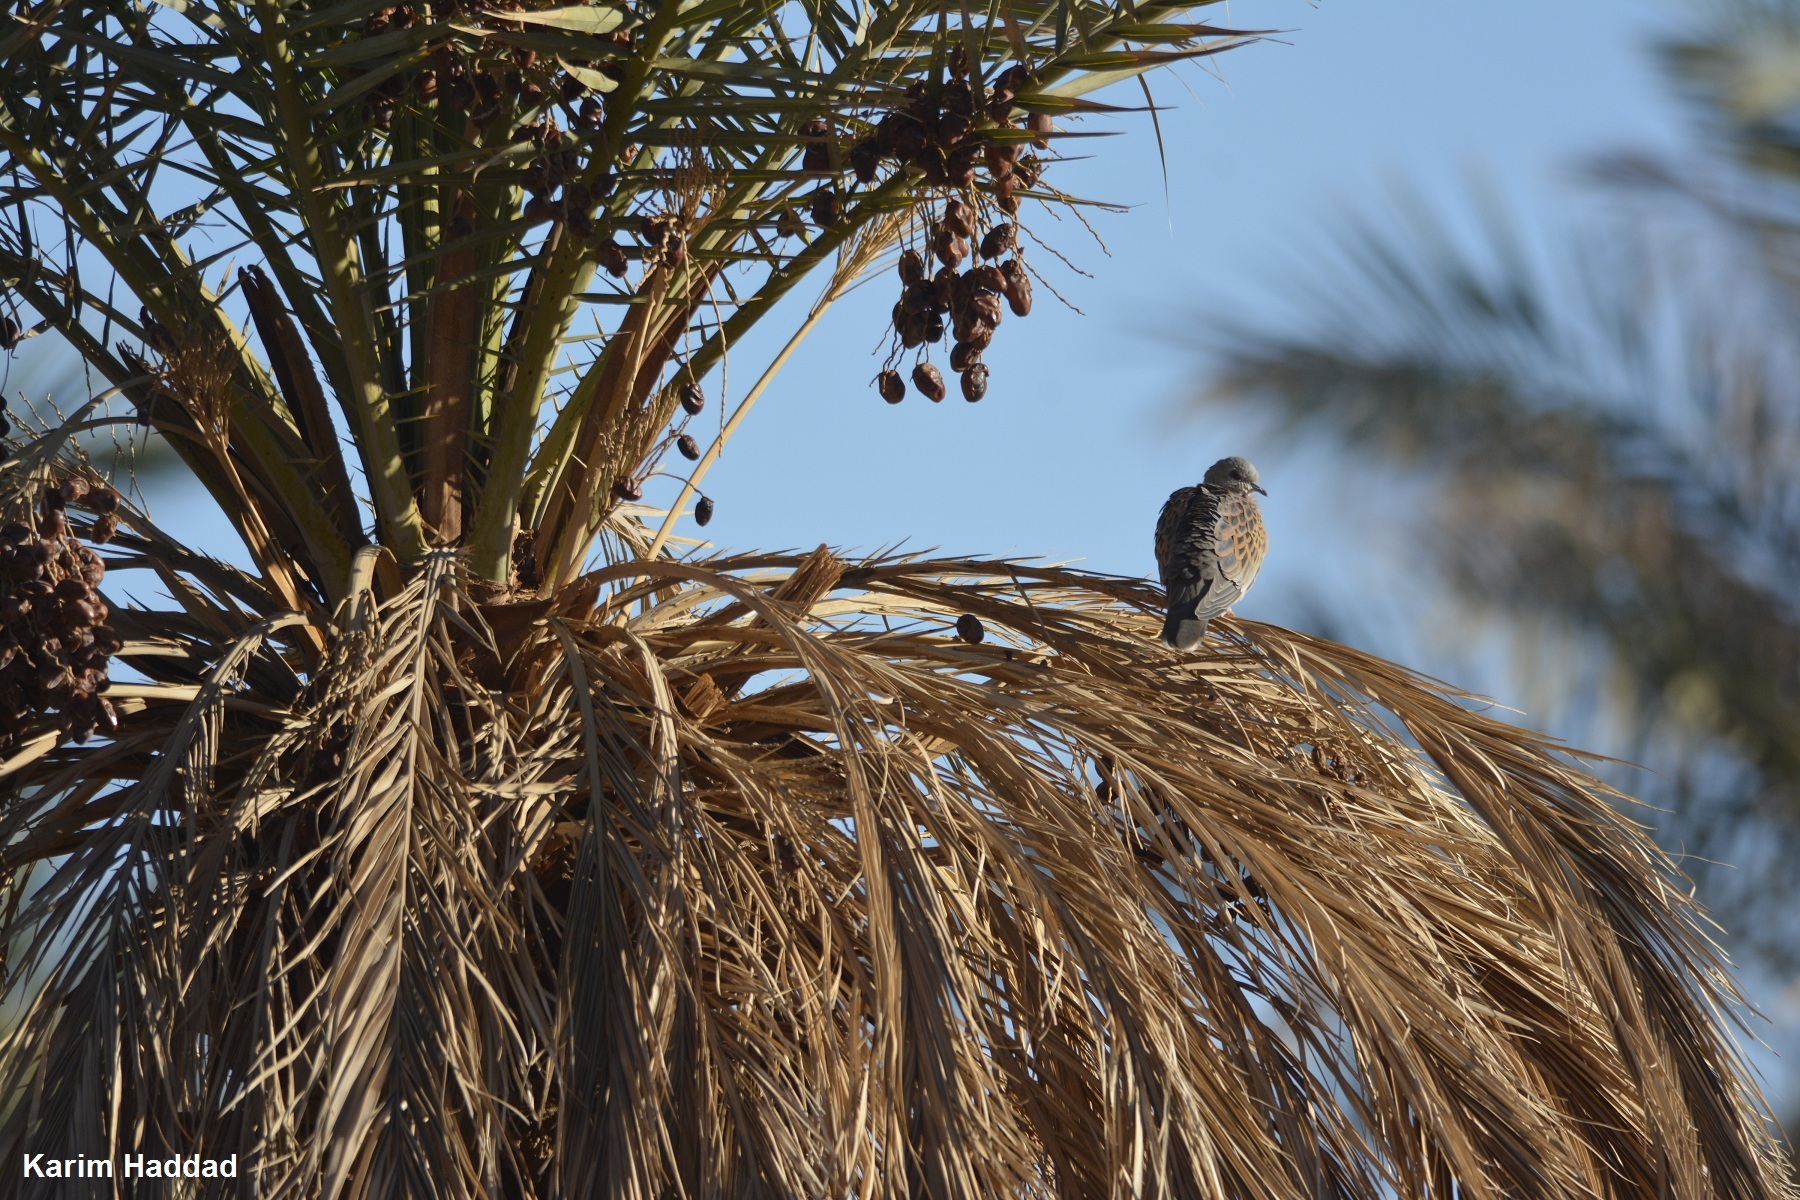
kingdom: Animalia
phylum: Chordata
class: Aves
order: Columbiformes
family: Columbidae
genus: Streptopelia
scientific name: Streptopelia turtur
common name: European turtle dove
